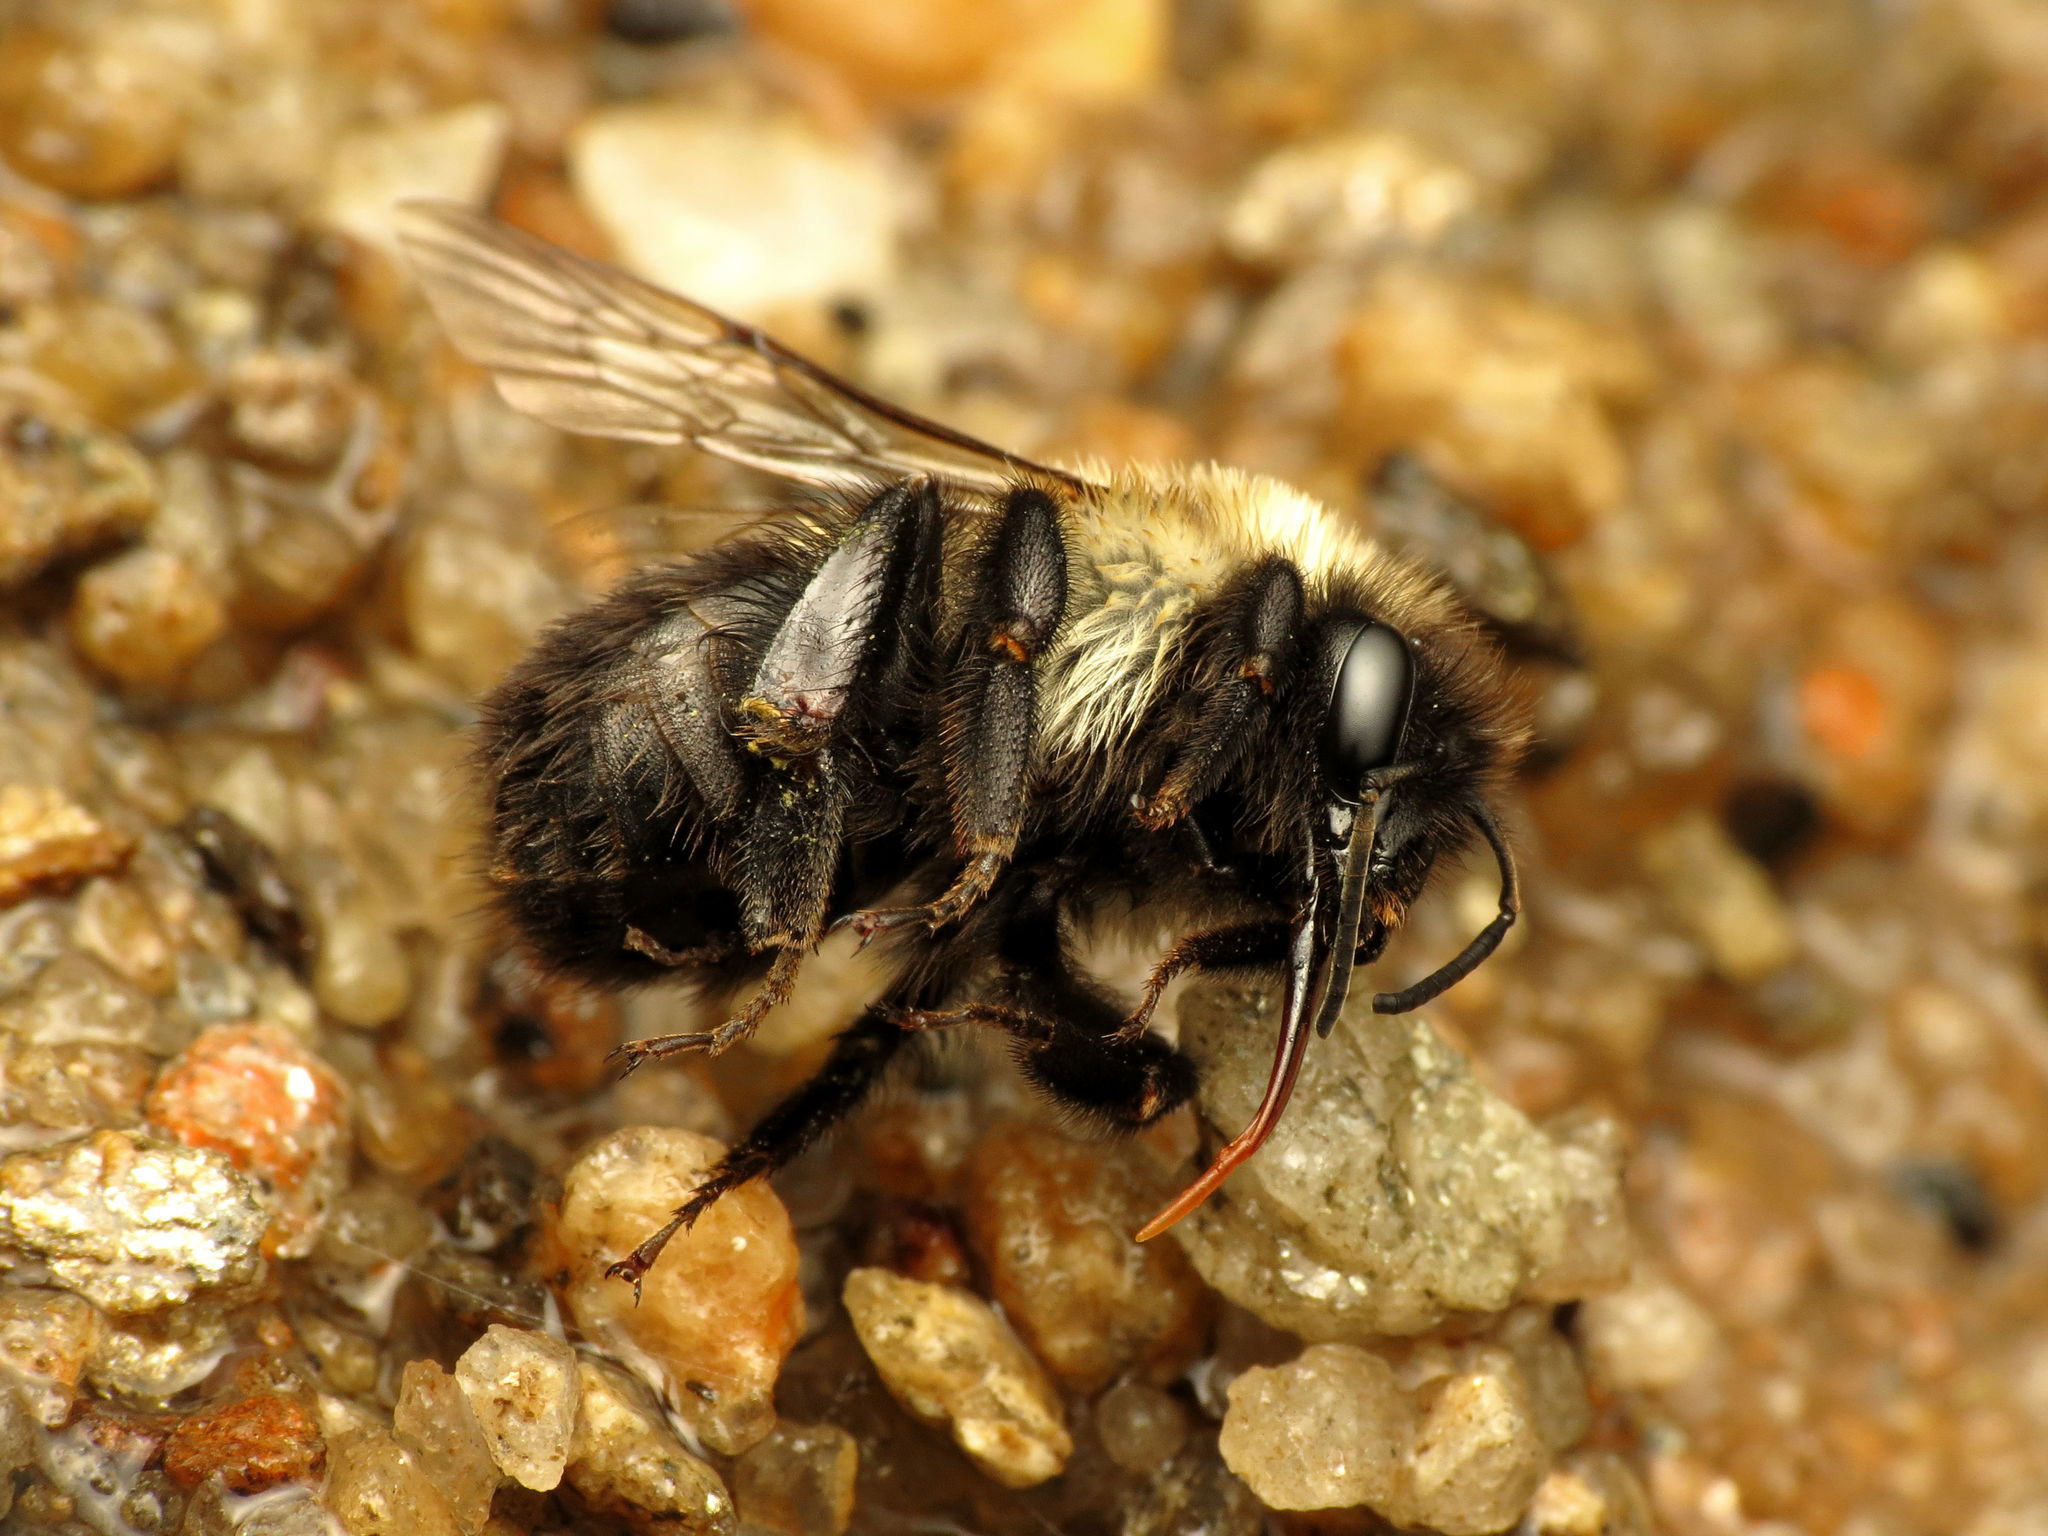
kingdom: Animalia
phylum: Arthropoda
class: Insecta
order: Hymenoptera
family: Apidae
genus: Bombus
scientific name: Bombus impatiens
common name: Common eastern bumble bee
